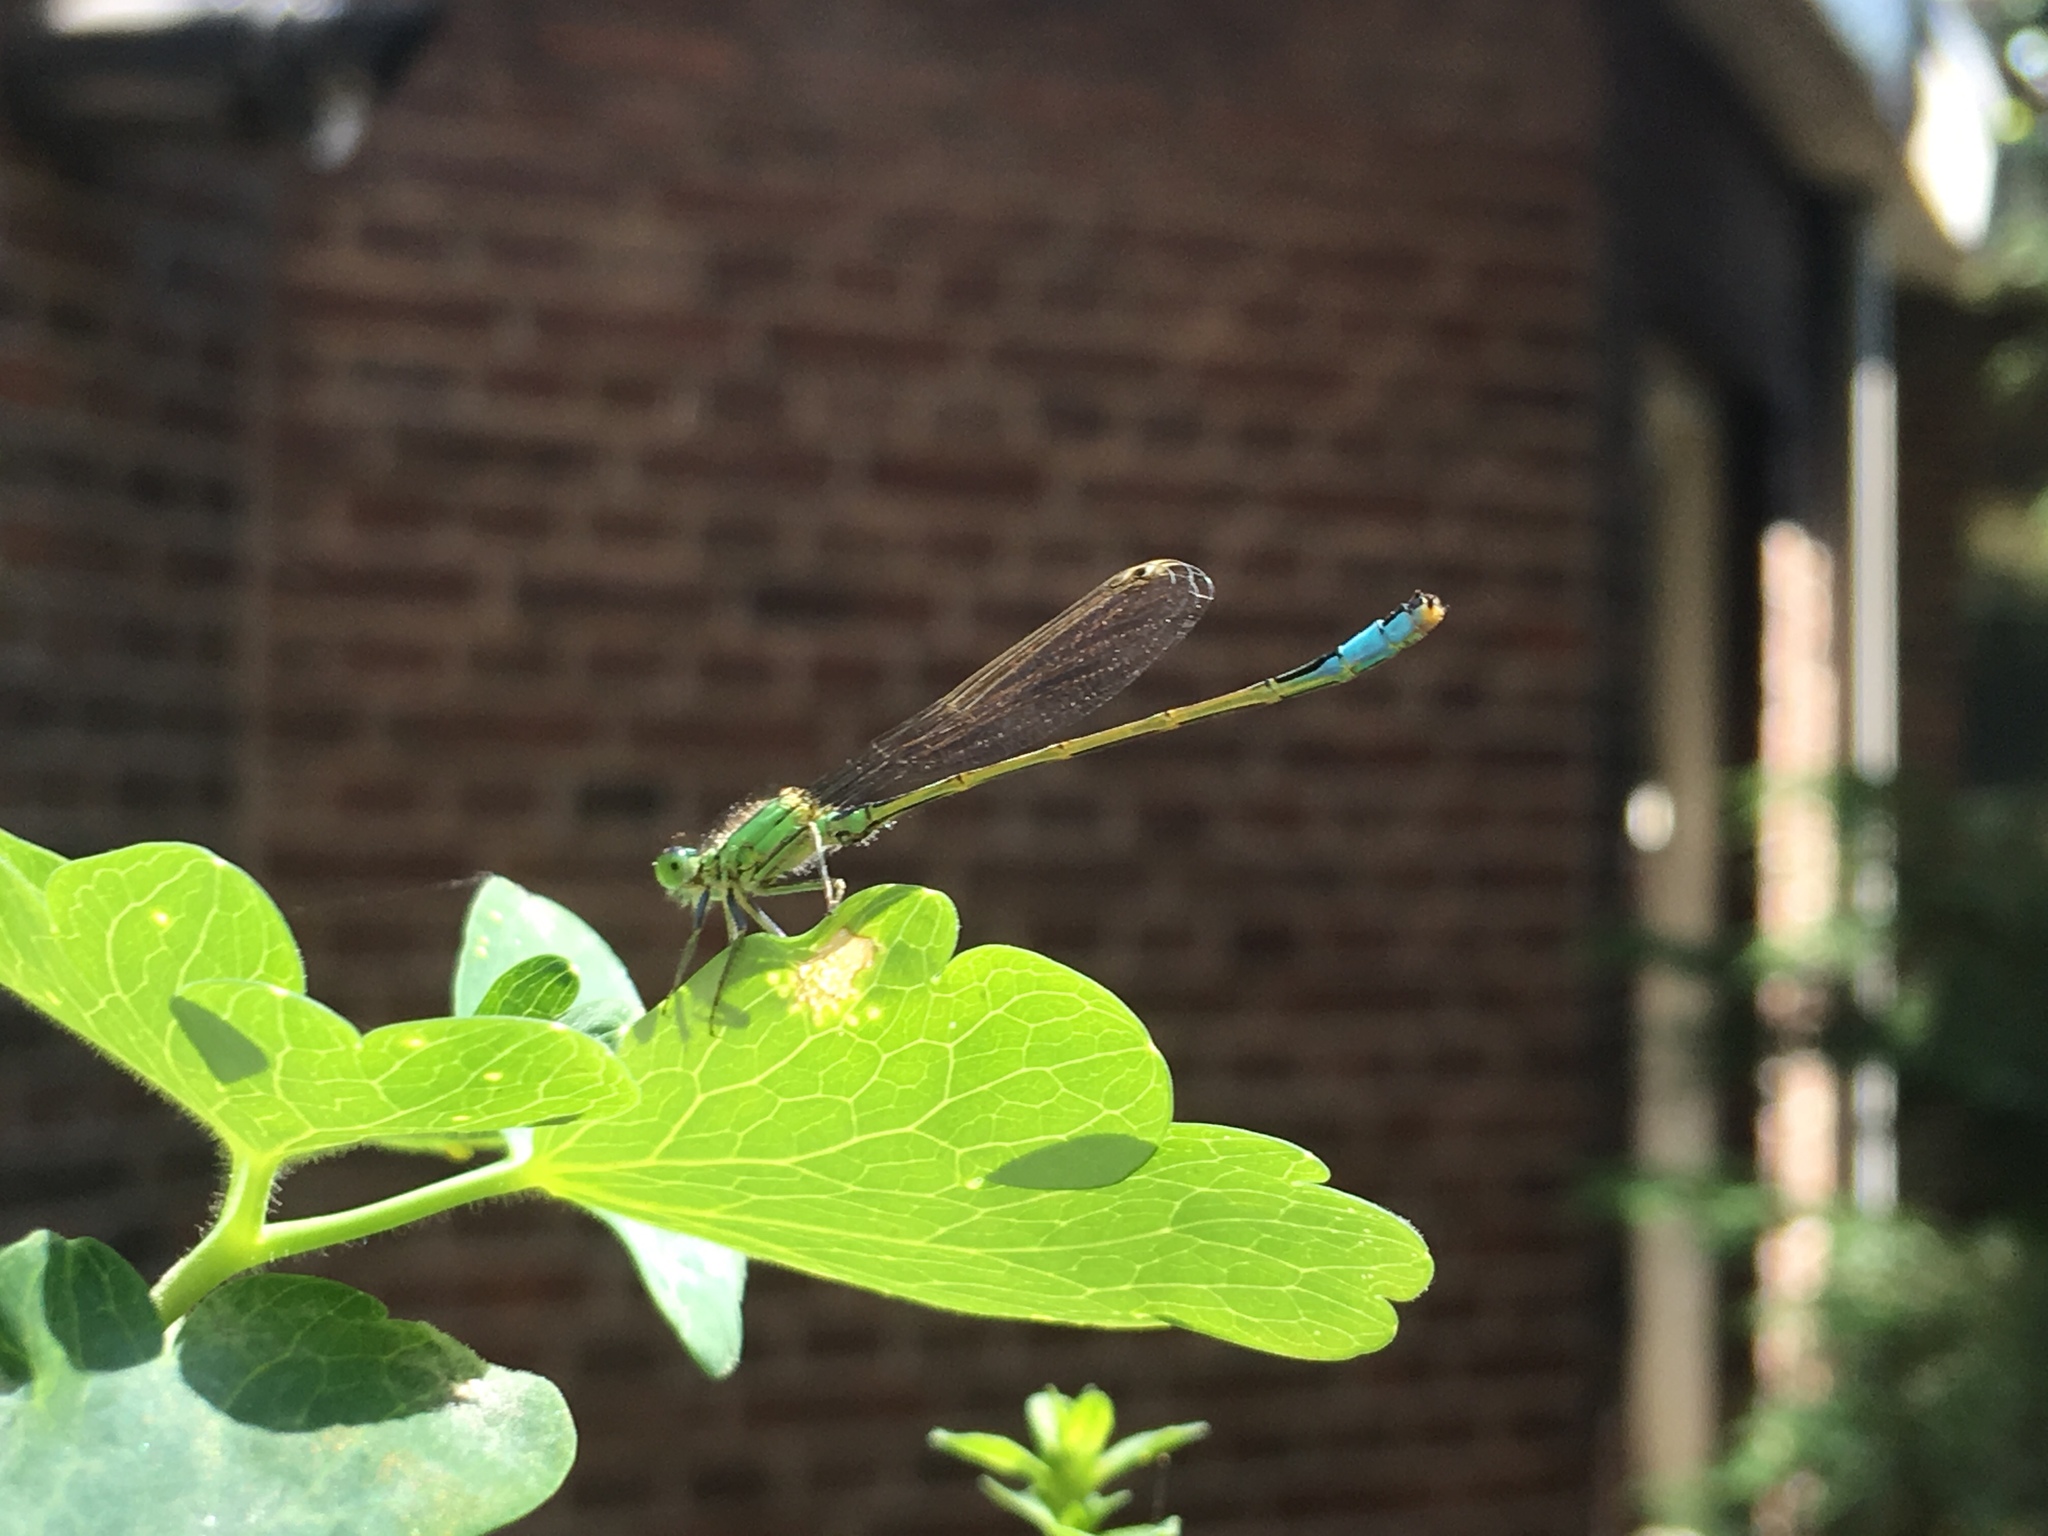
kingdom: Animalia
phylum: Arthropoda
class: Insecta
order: Odonata
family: Coenagrionidae
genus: Ischnura
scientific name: Ischnura elegans
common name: Blue-tailed damselfly
